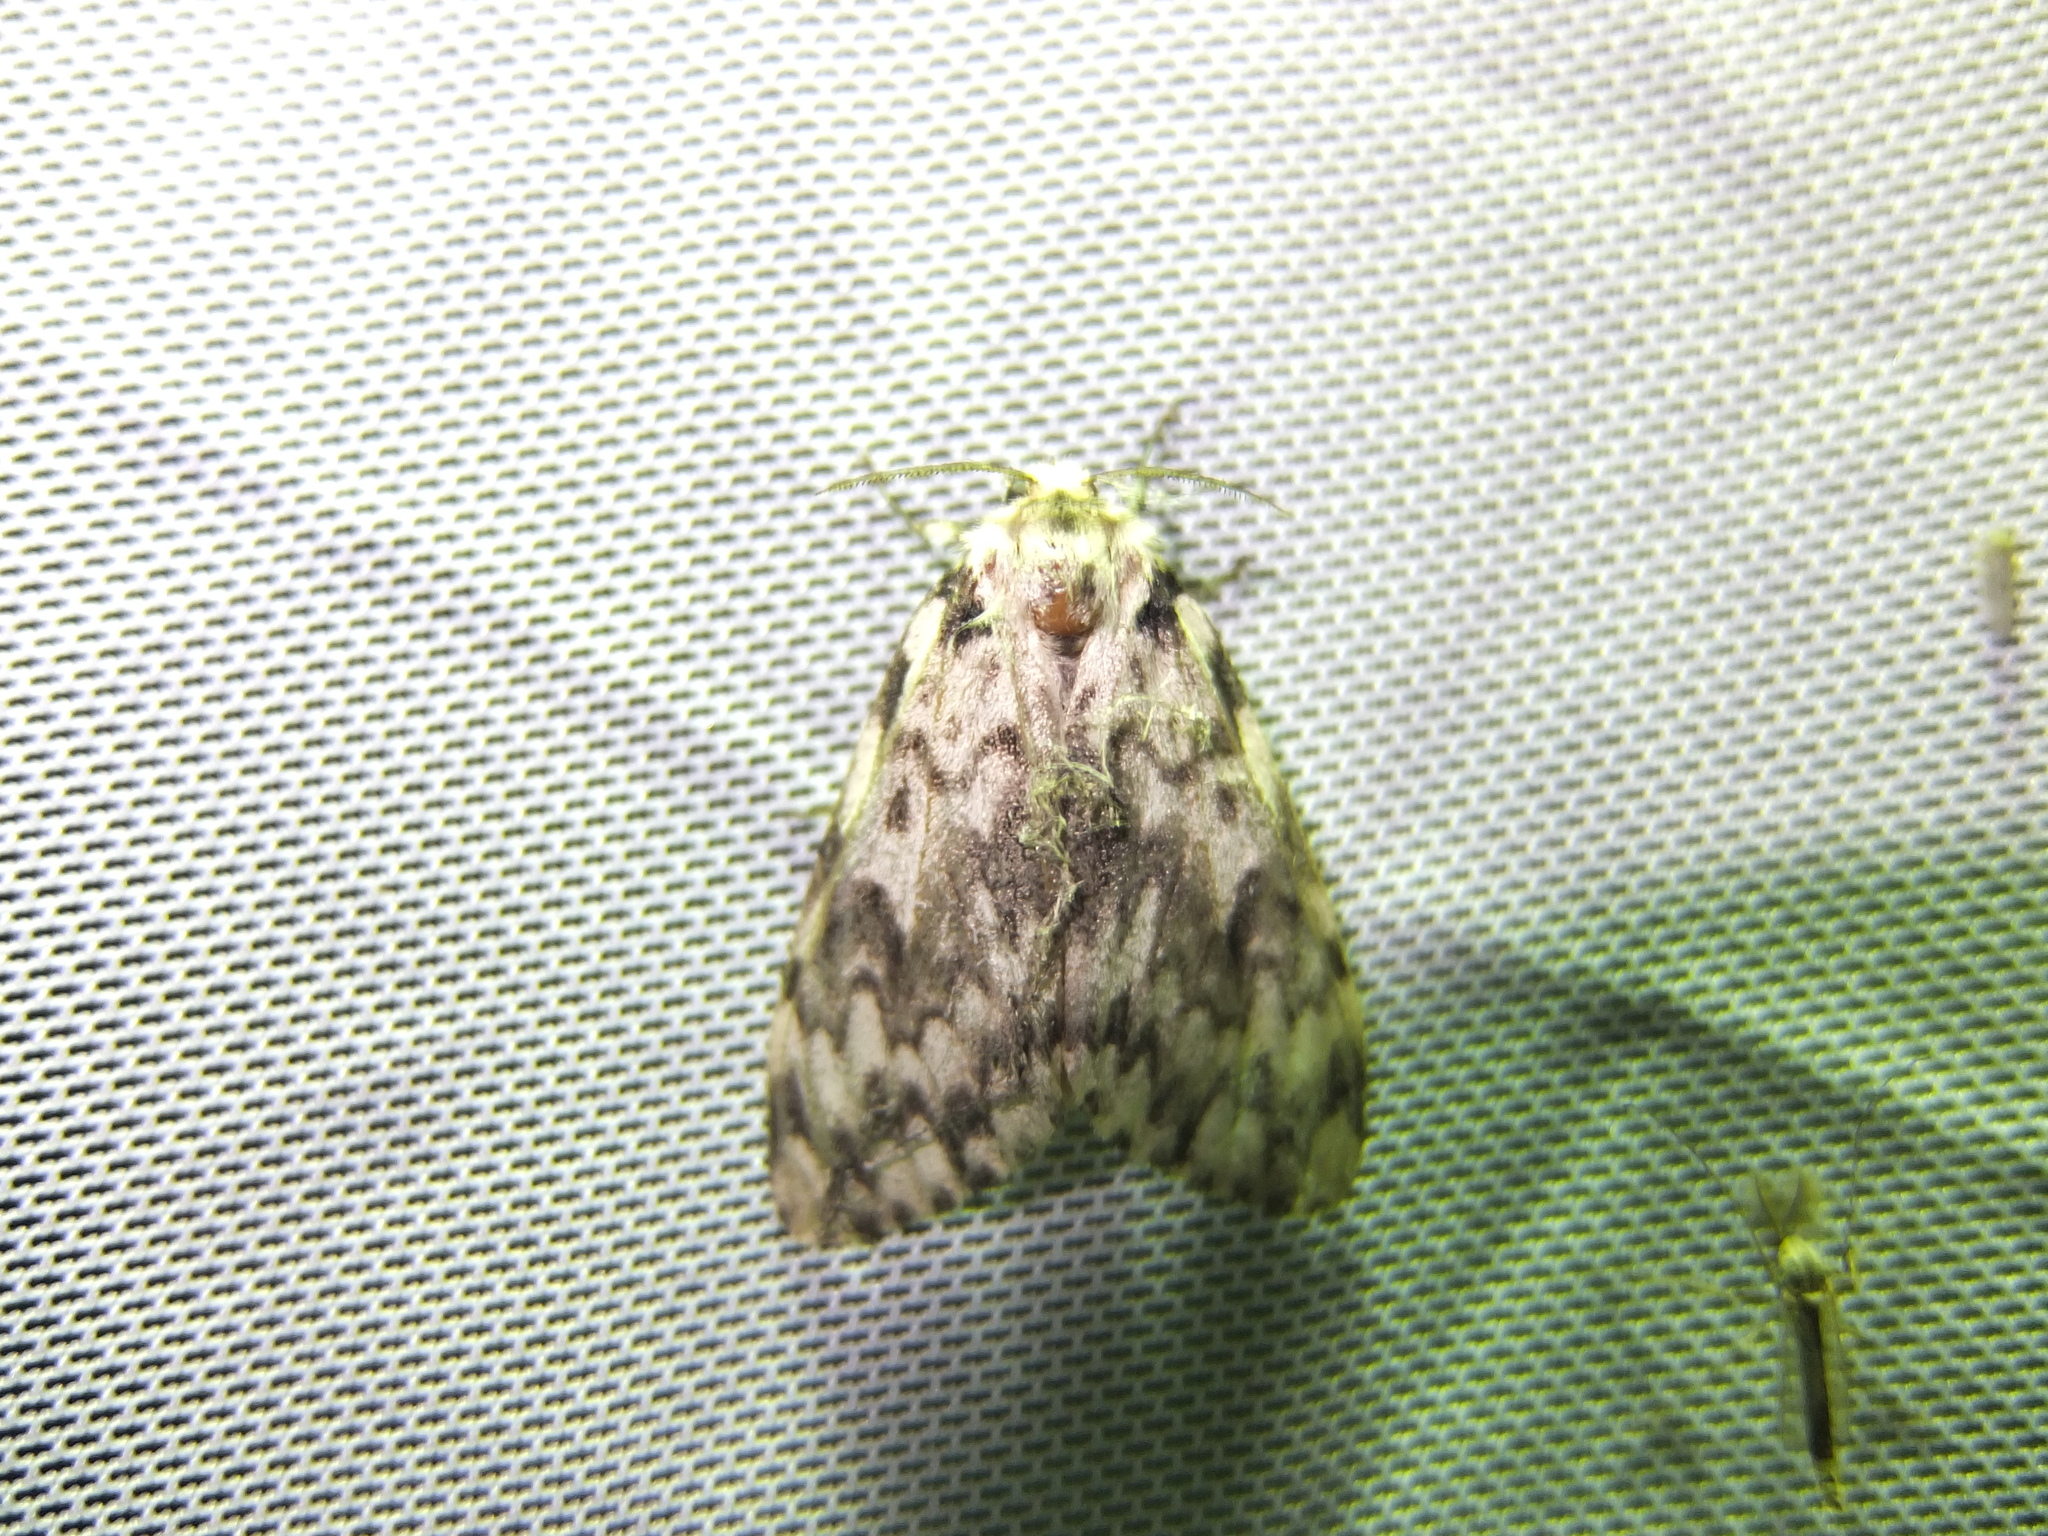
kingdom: Animalia
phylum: Arthropoda
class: Insecta
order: Lepidoptera
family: Erebidae
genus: Lymantria
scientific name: Lymantria monacha
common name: Black arches
